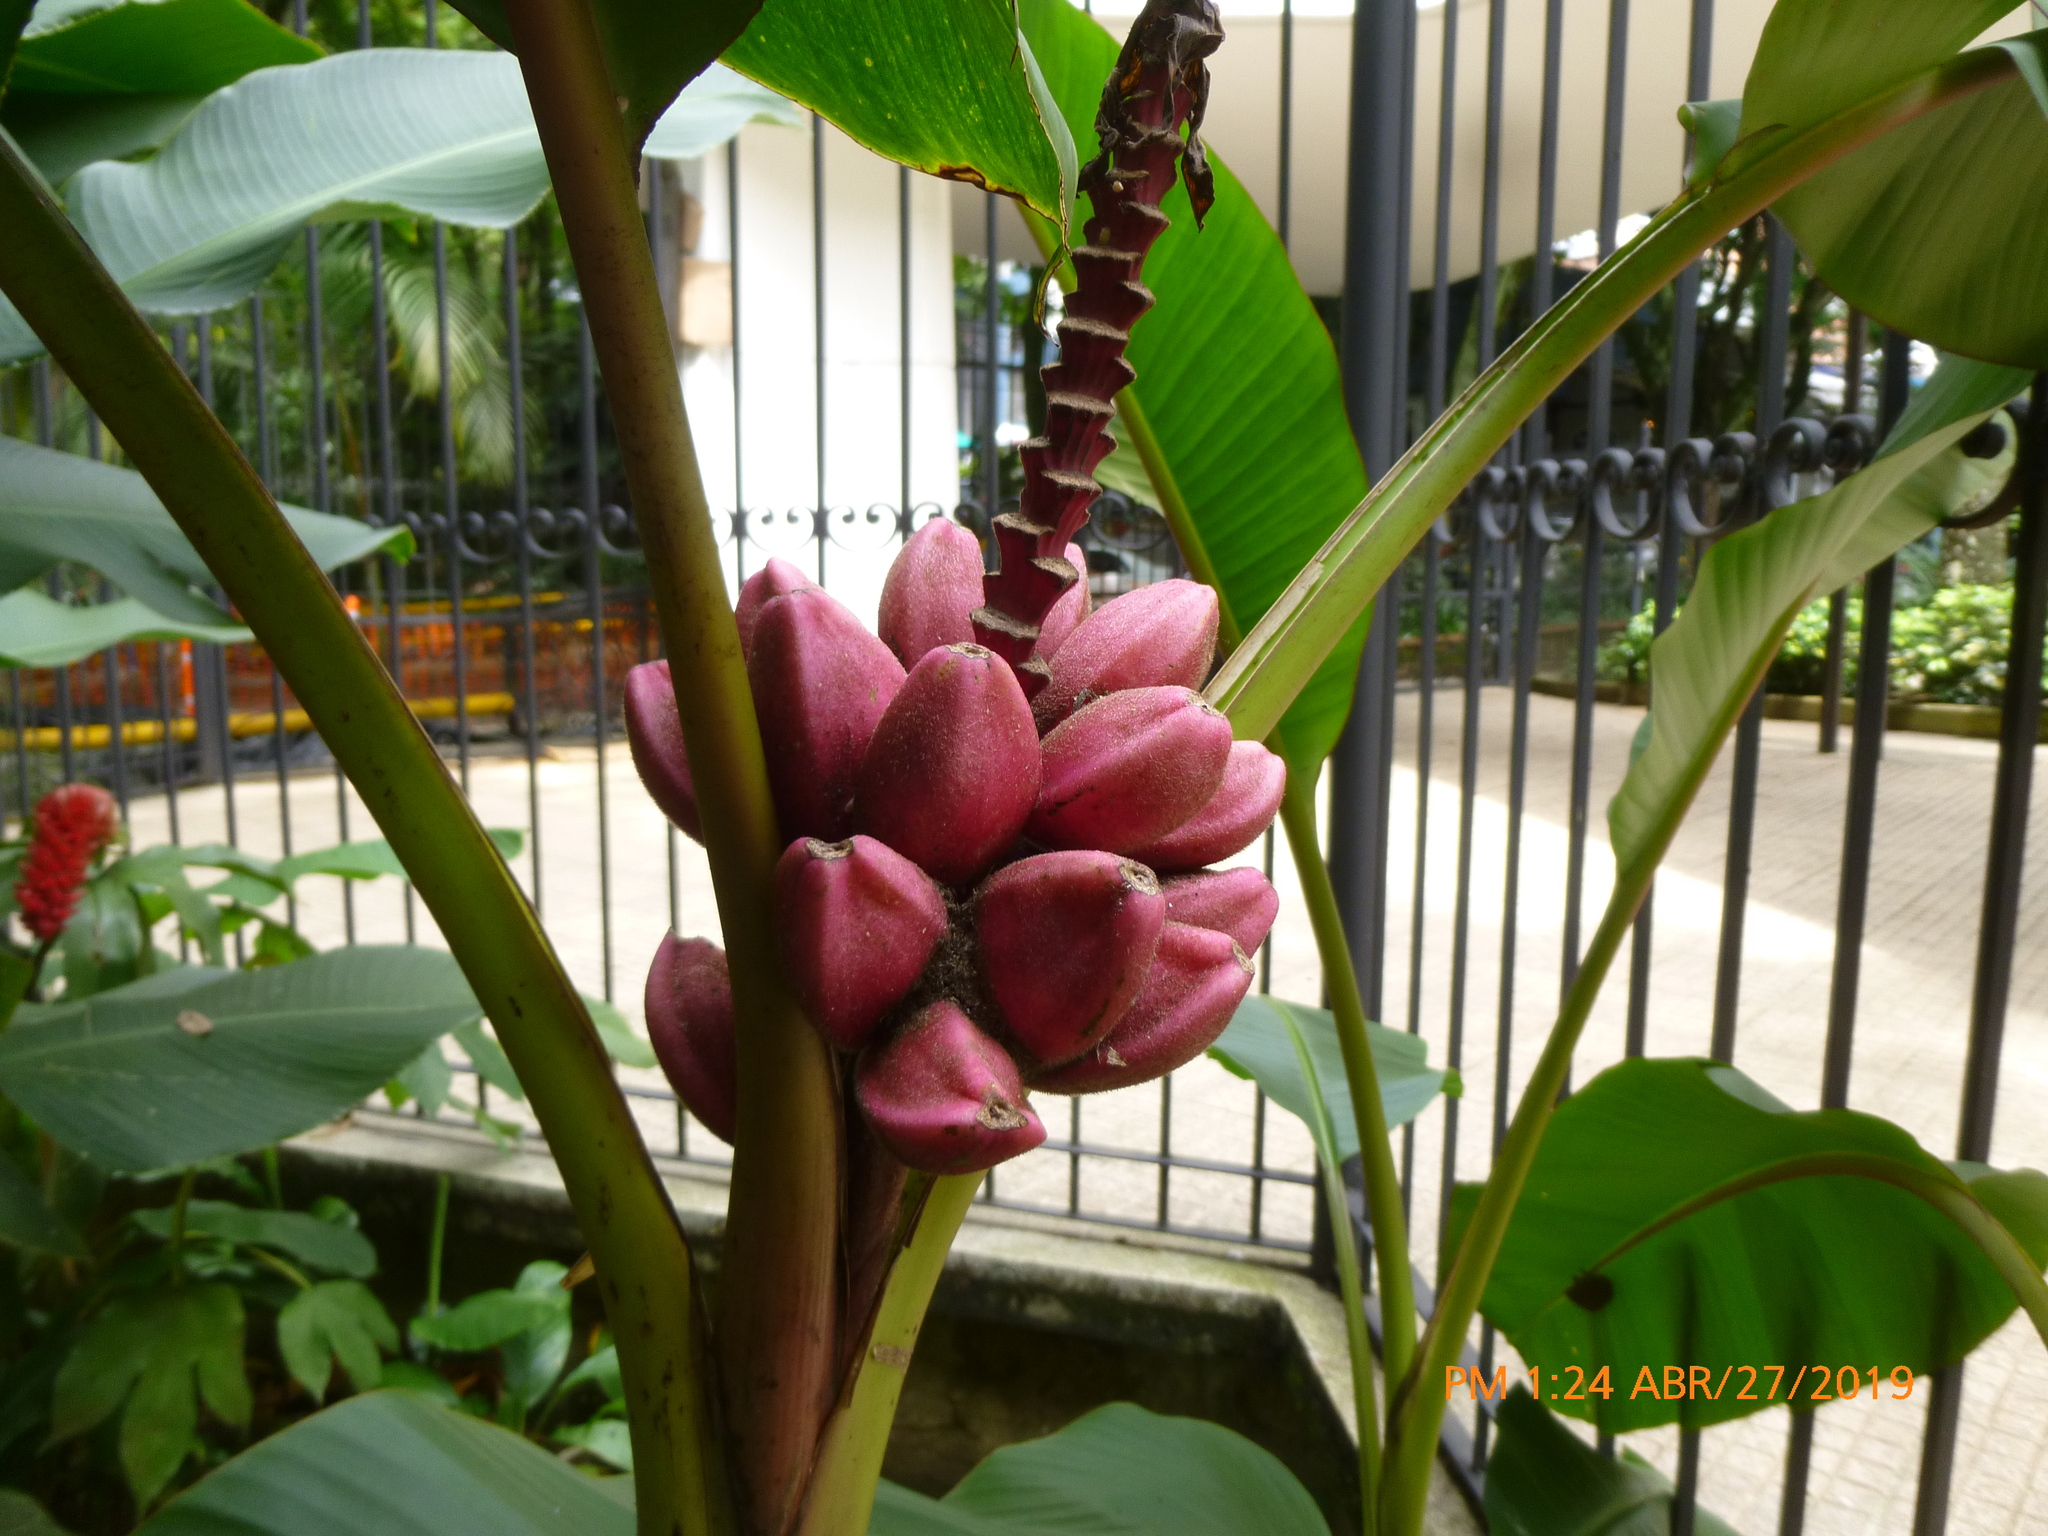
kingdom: Plantae
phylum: Tracheophyta
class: Liliopsida
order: Zingiberales
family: Musaceae
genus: Musa
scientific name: Musa velutina
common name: Pink velvet banana
